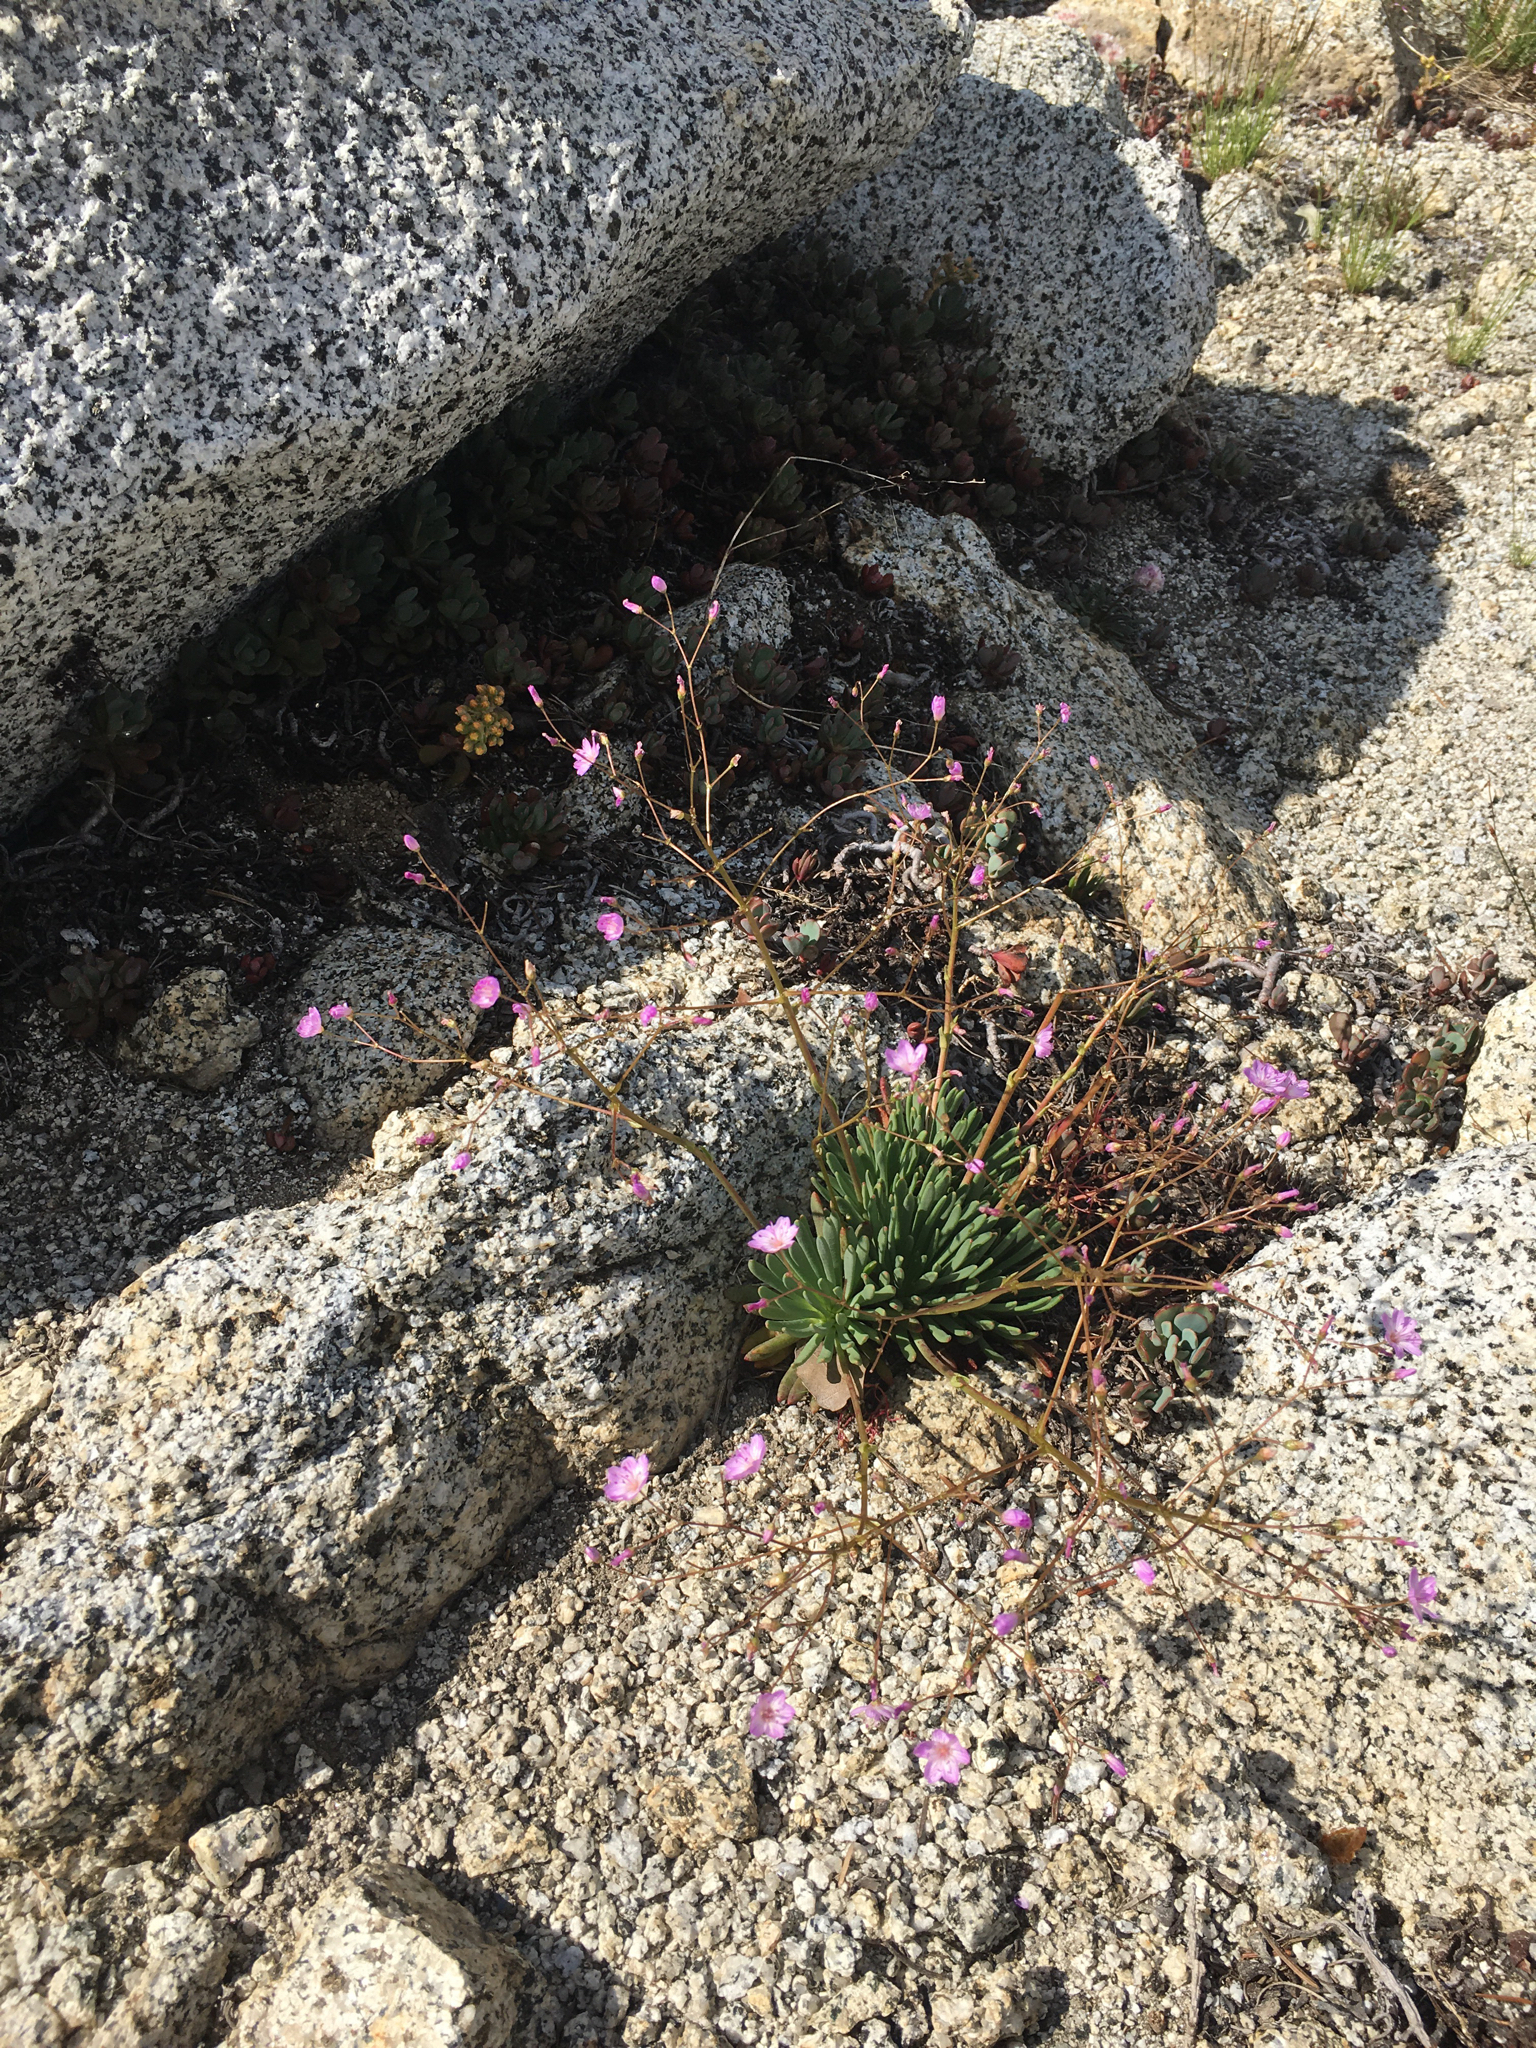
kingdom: Plantae
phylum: Tracheophyta
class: Magnoliopsida
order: Caryophyllales
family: Montiaceae
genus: Lewisia
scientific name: Lewisia leeana
